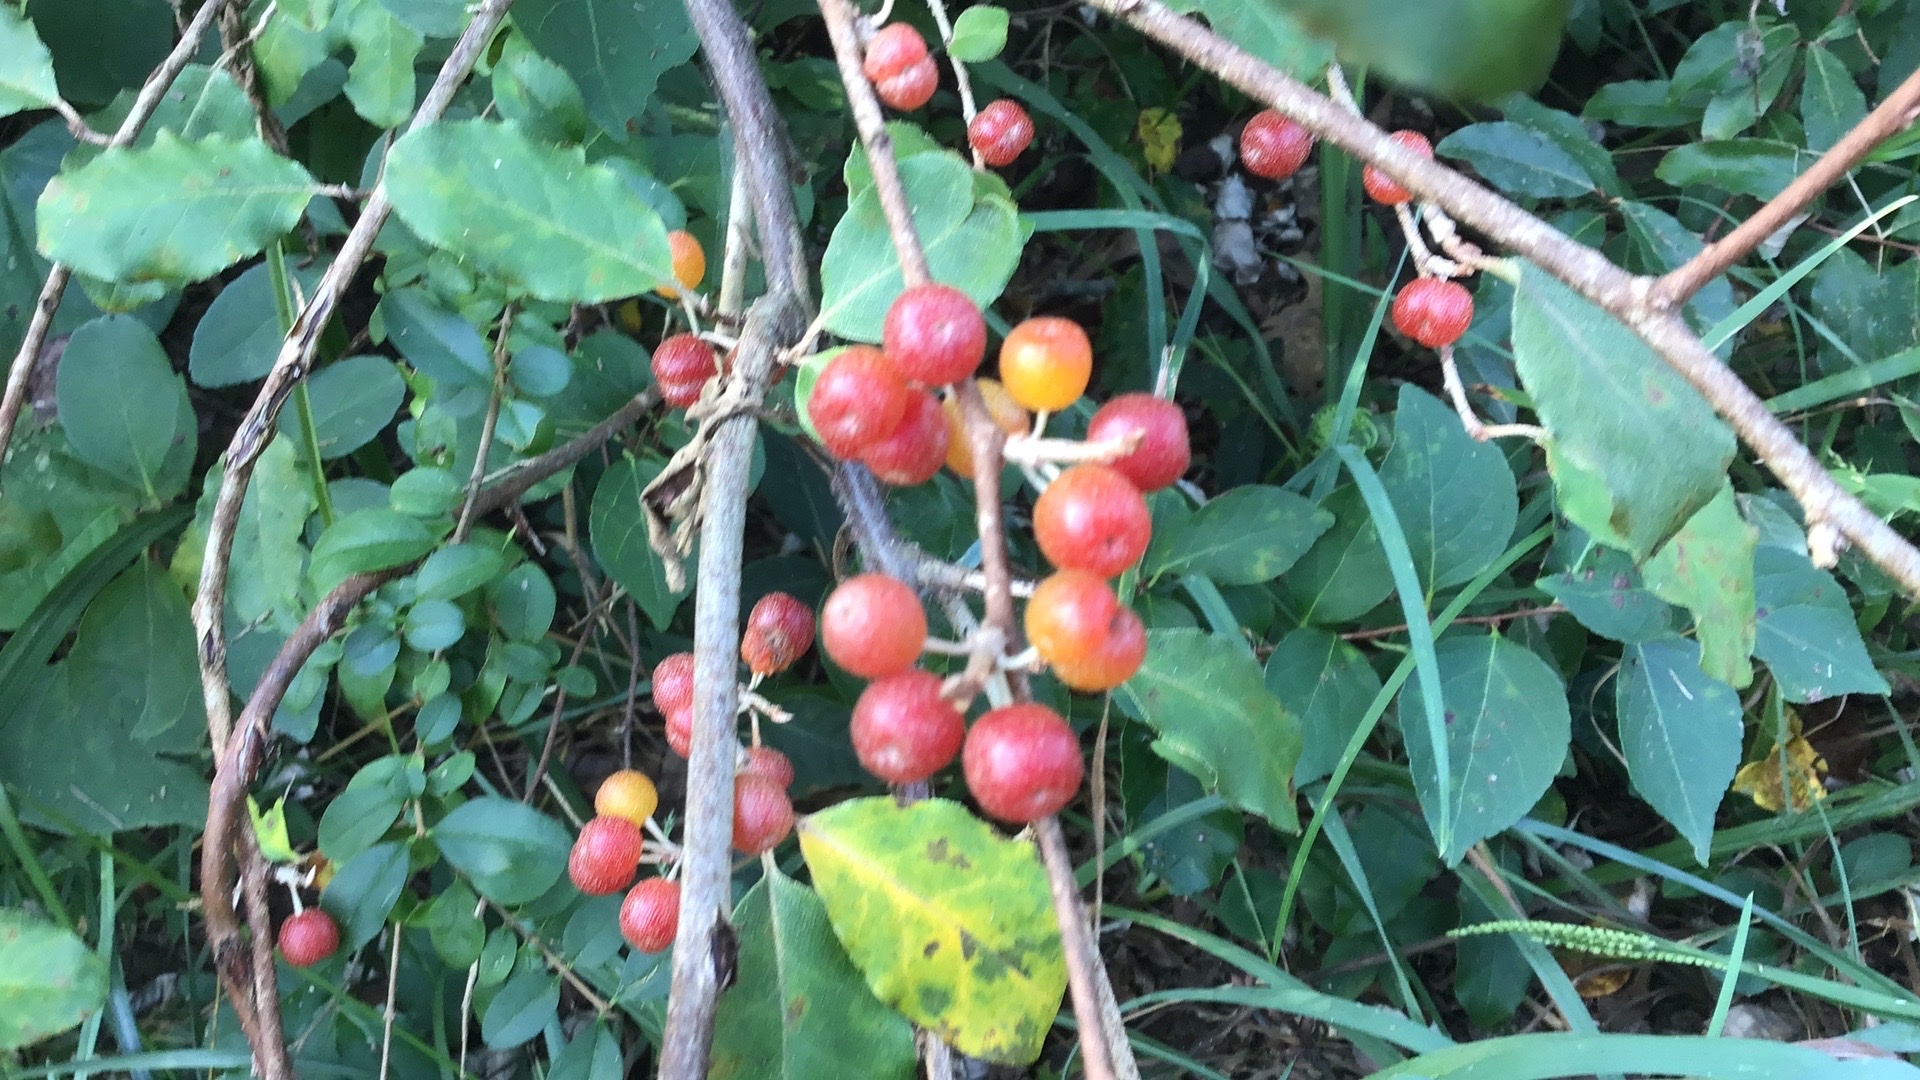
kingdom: Plantae
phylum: Tracheophyta
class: Magnoliopsida
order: Rosales
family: Elaeagnaceae
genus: Elaeagnus
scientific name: Elaeagnus umbellata
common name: Autumn olive
